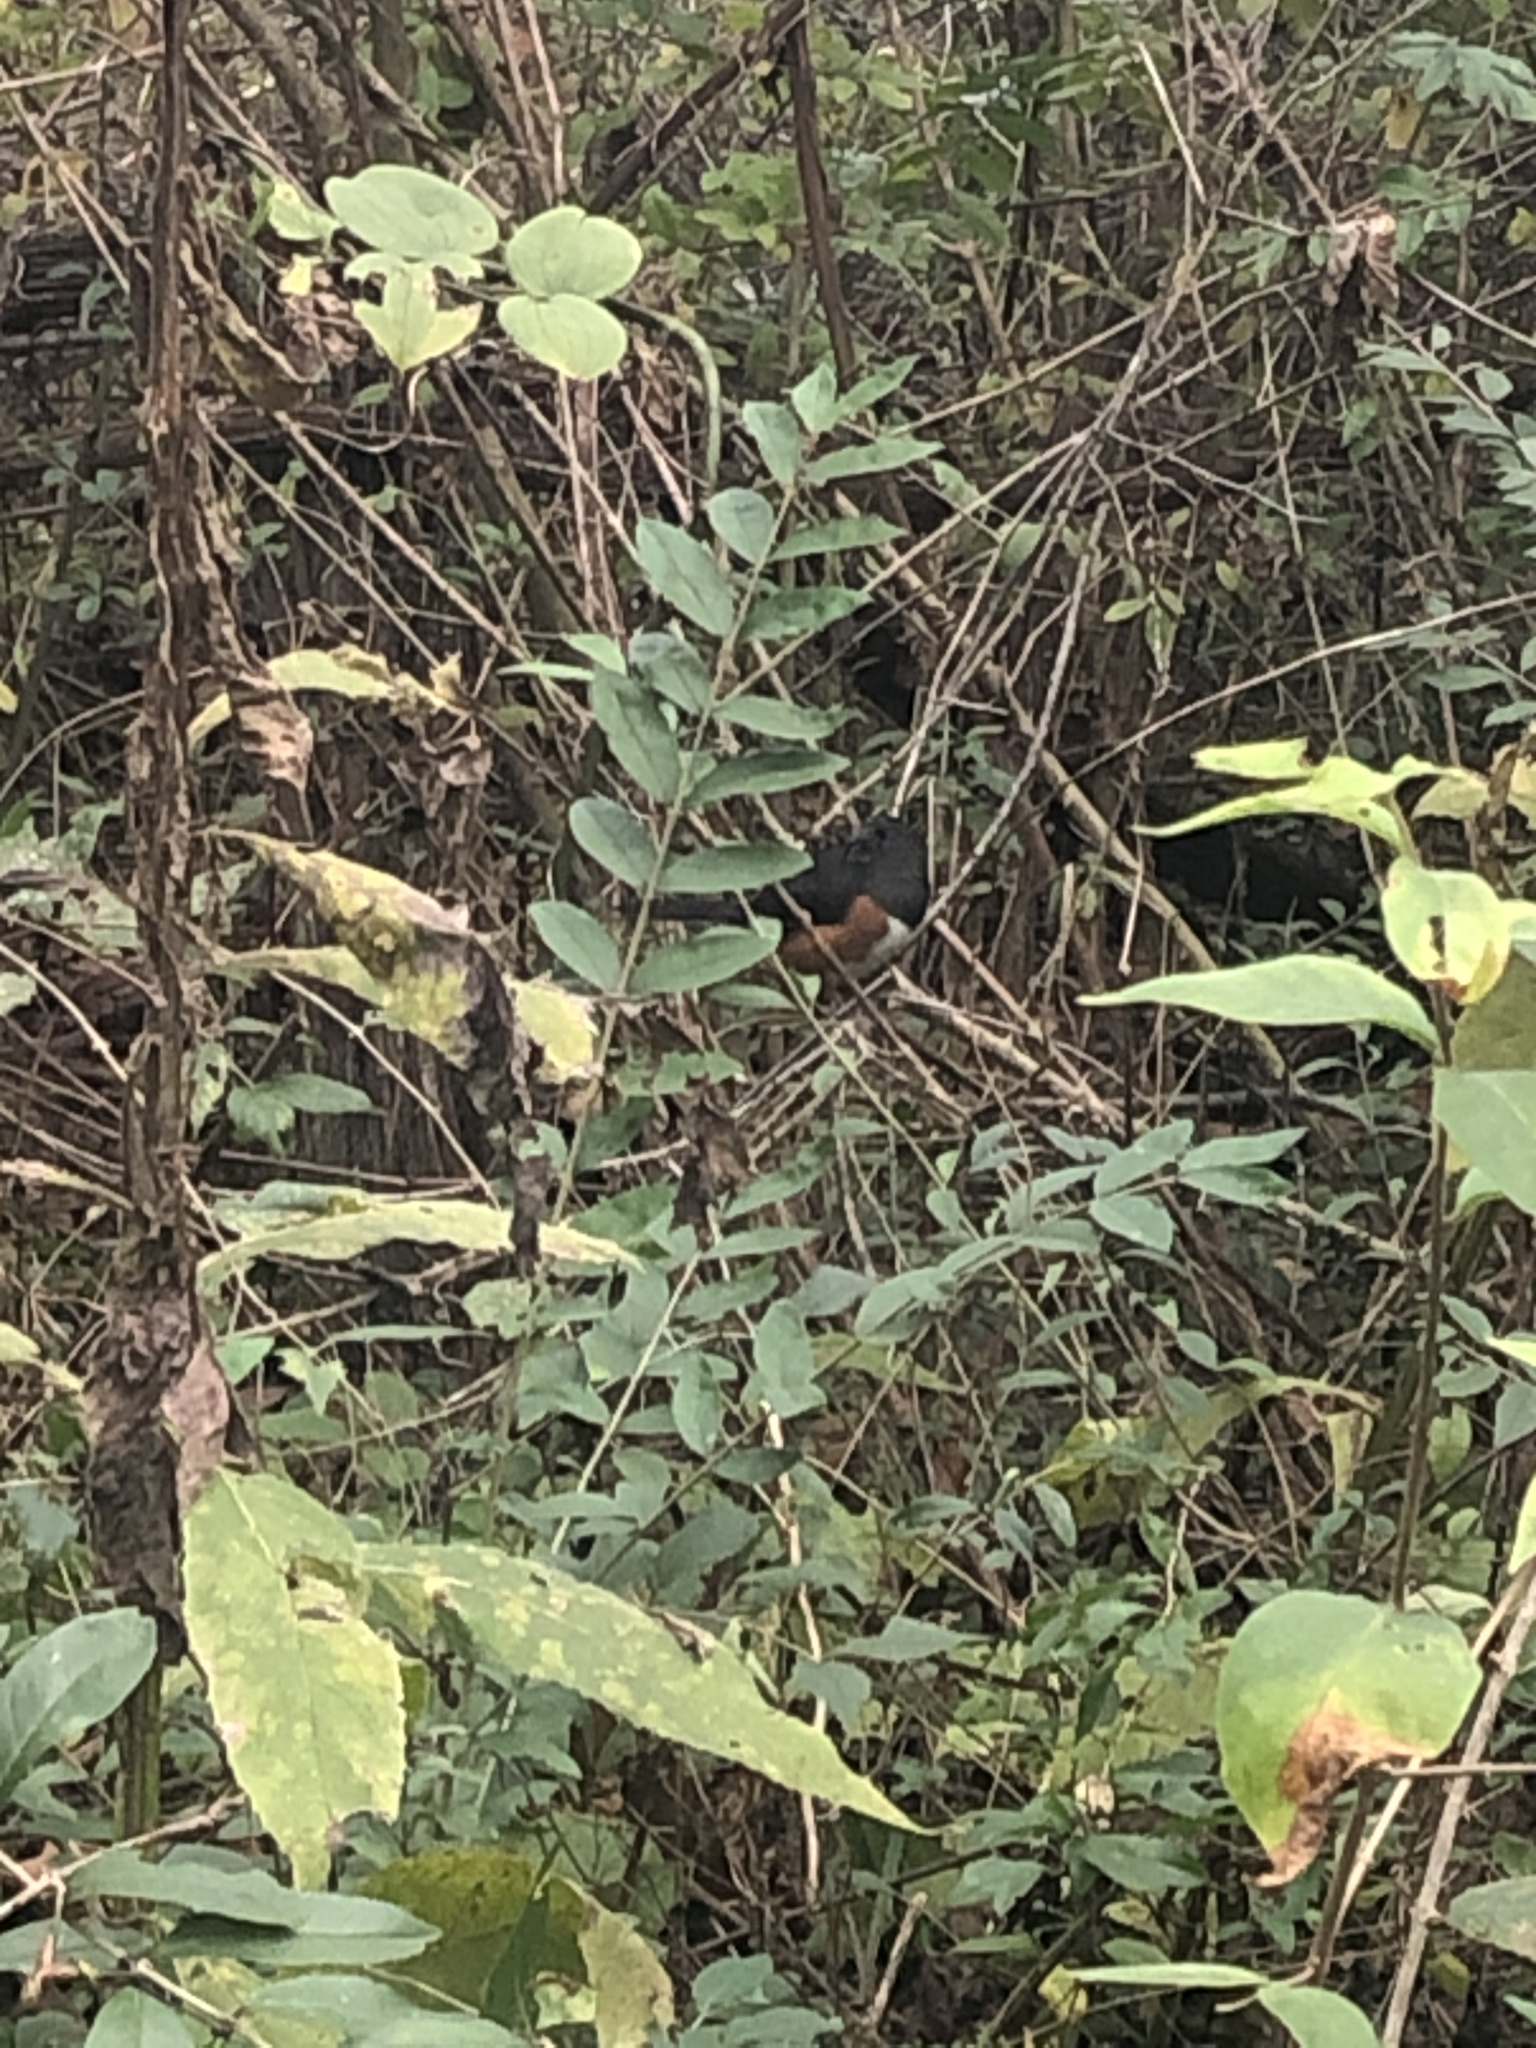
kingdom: Animalia
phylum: Chordata
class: Aves
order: Passeriformes
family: Passerellidae
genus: Pipilo
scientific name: Pipilo erythrophthalmus
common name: Eastern towhee
